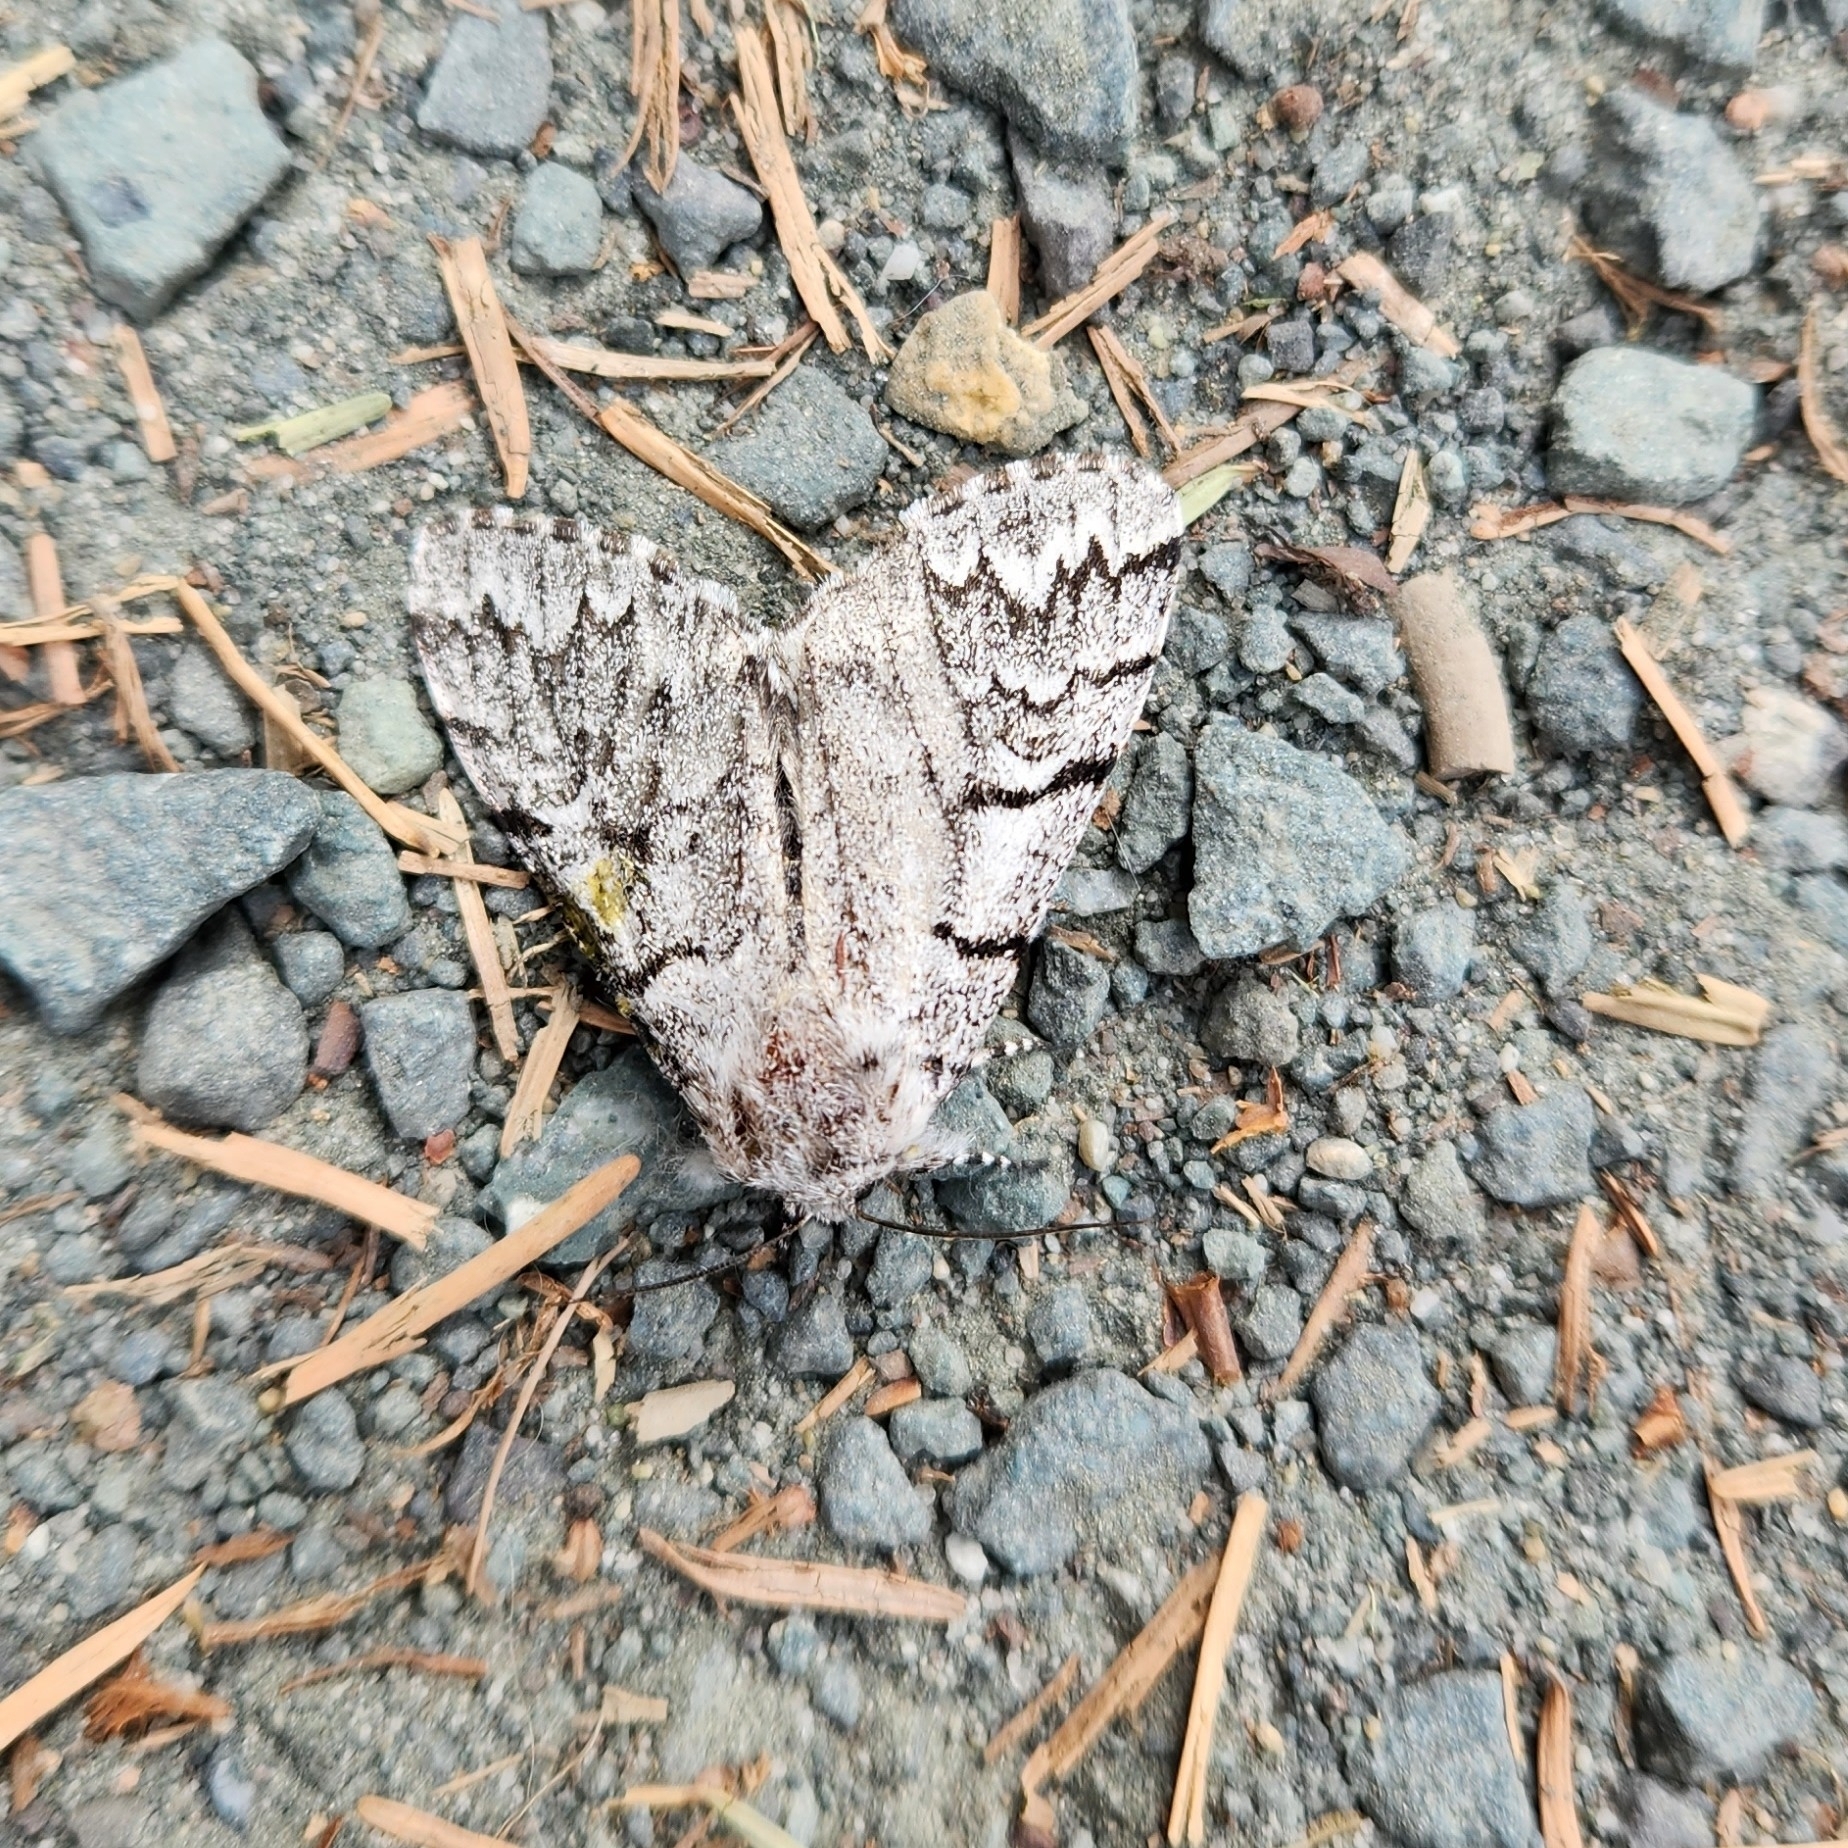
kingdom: Animalia
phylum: Arthropoda
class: Insecta
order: Lepidoptera
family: Noctuidae
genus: Panthea
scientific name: Panthea virginarius
